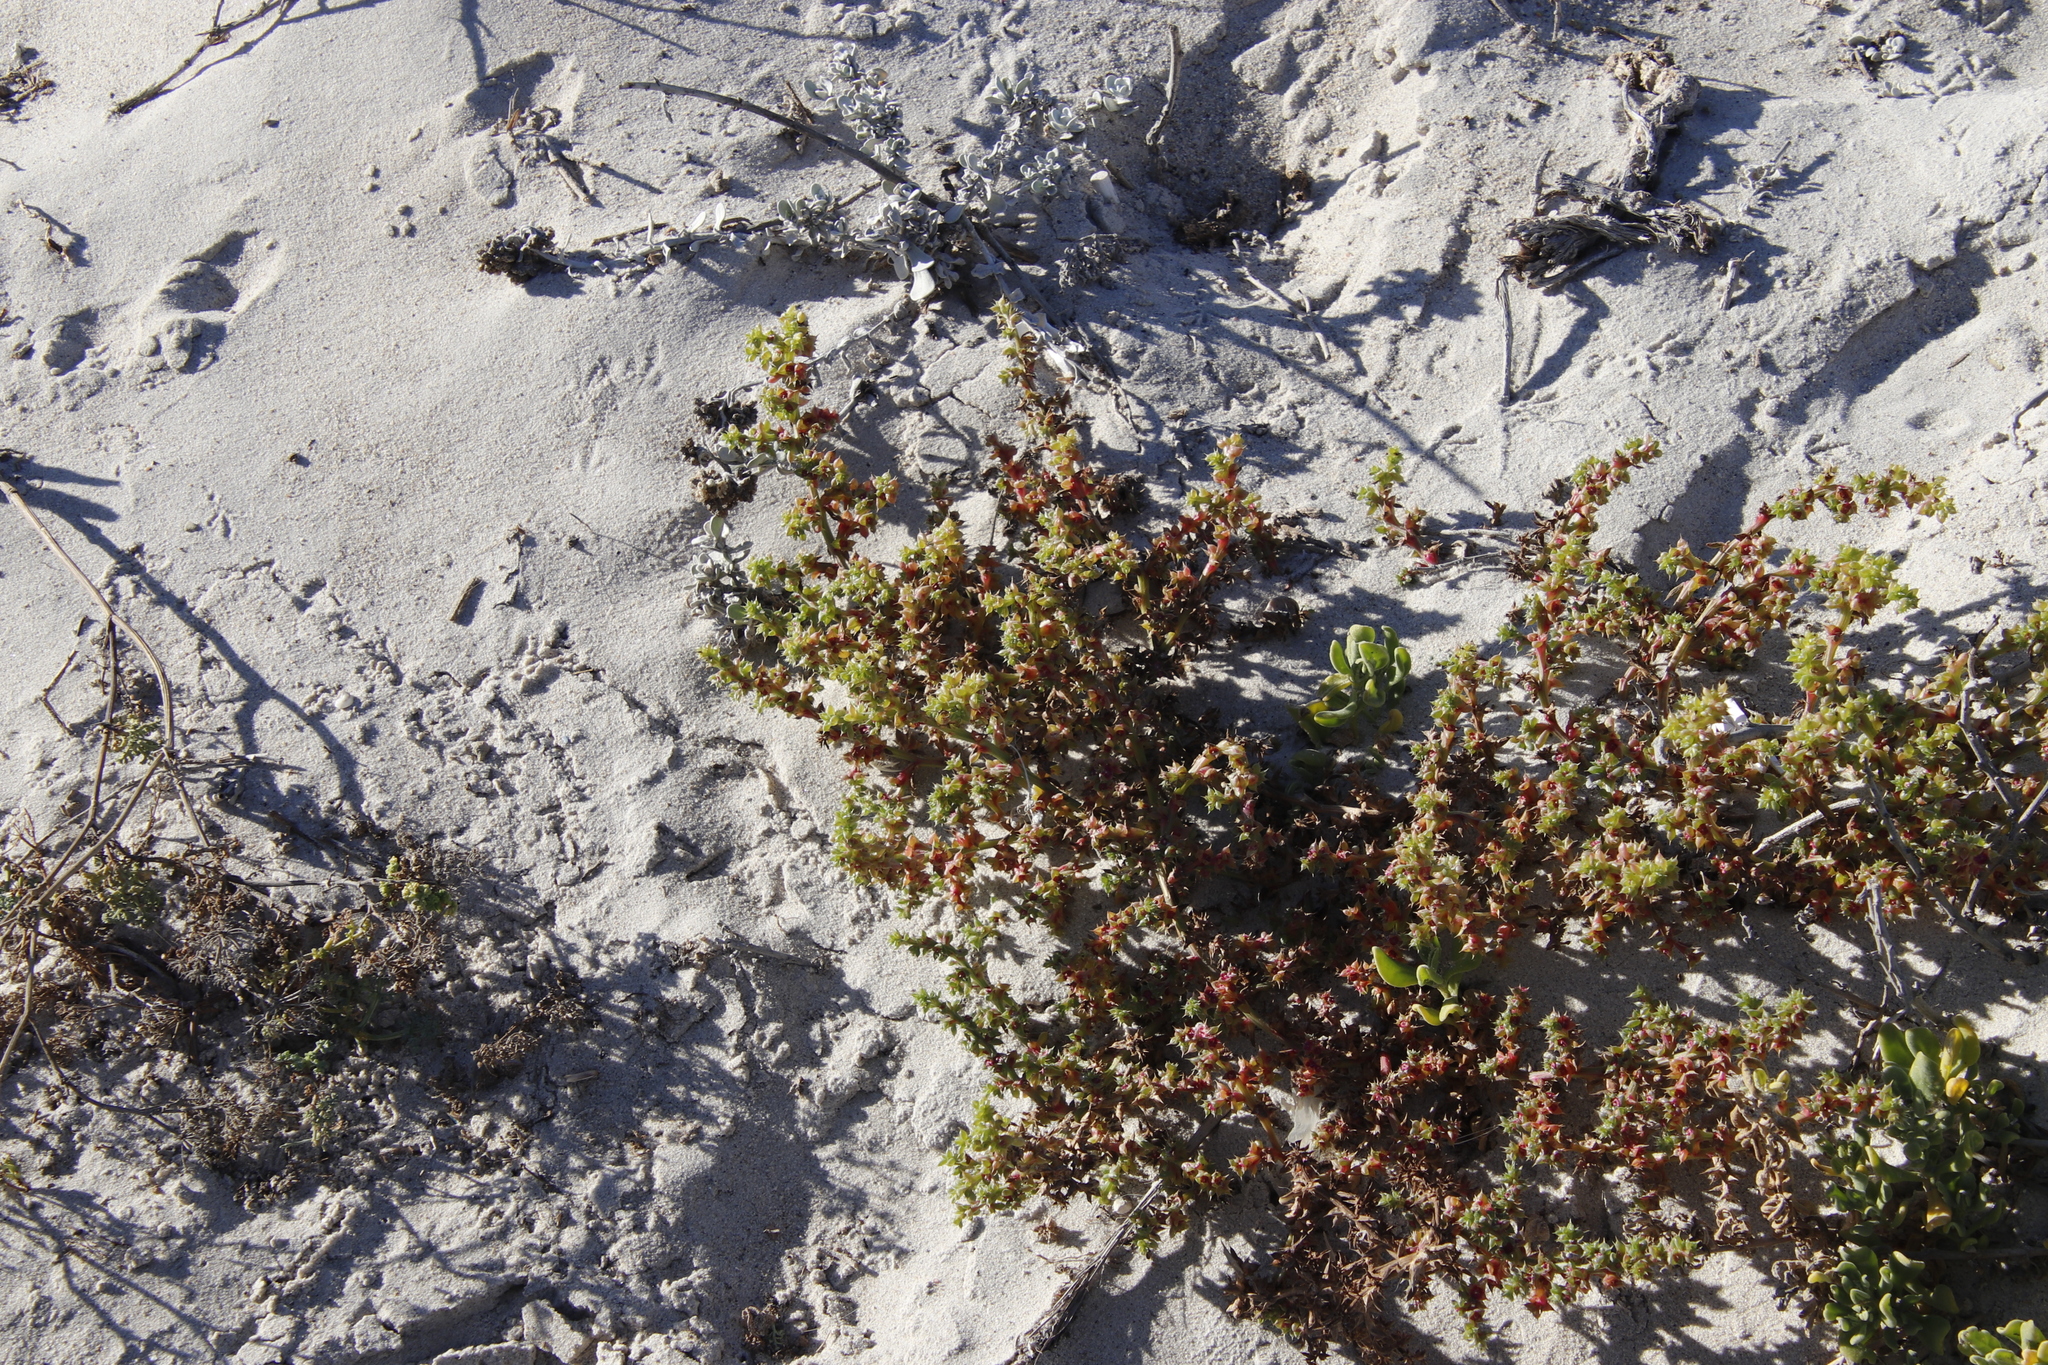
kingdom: Plantae
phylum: Tracheophyta
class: Magnoliopsida
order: Caryophyllales
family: Amaranthaceae
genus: Salsola
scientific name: Salsola kali
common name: Saltwort
